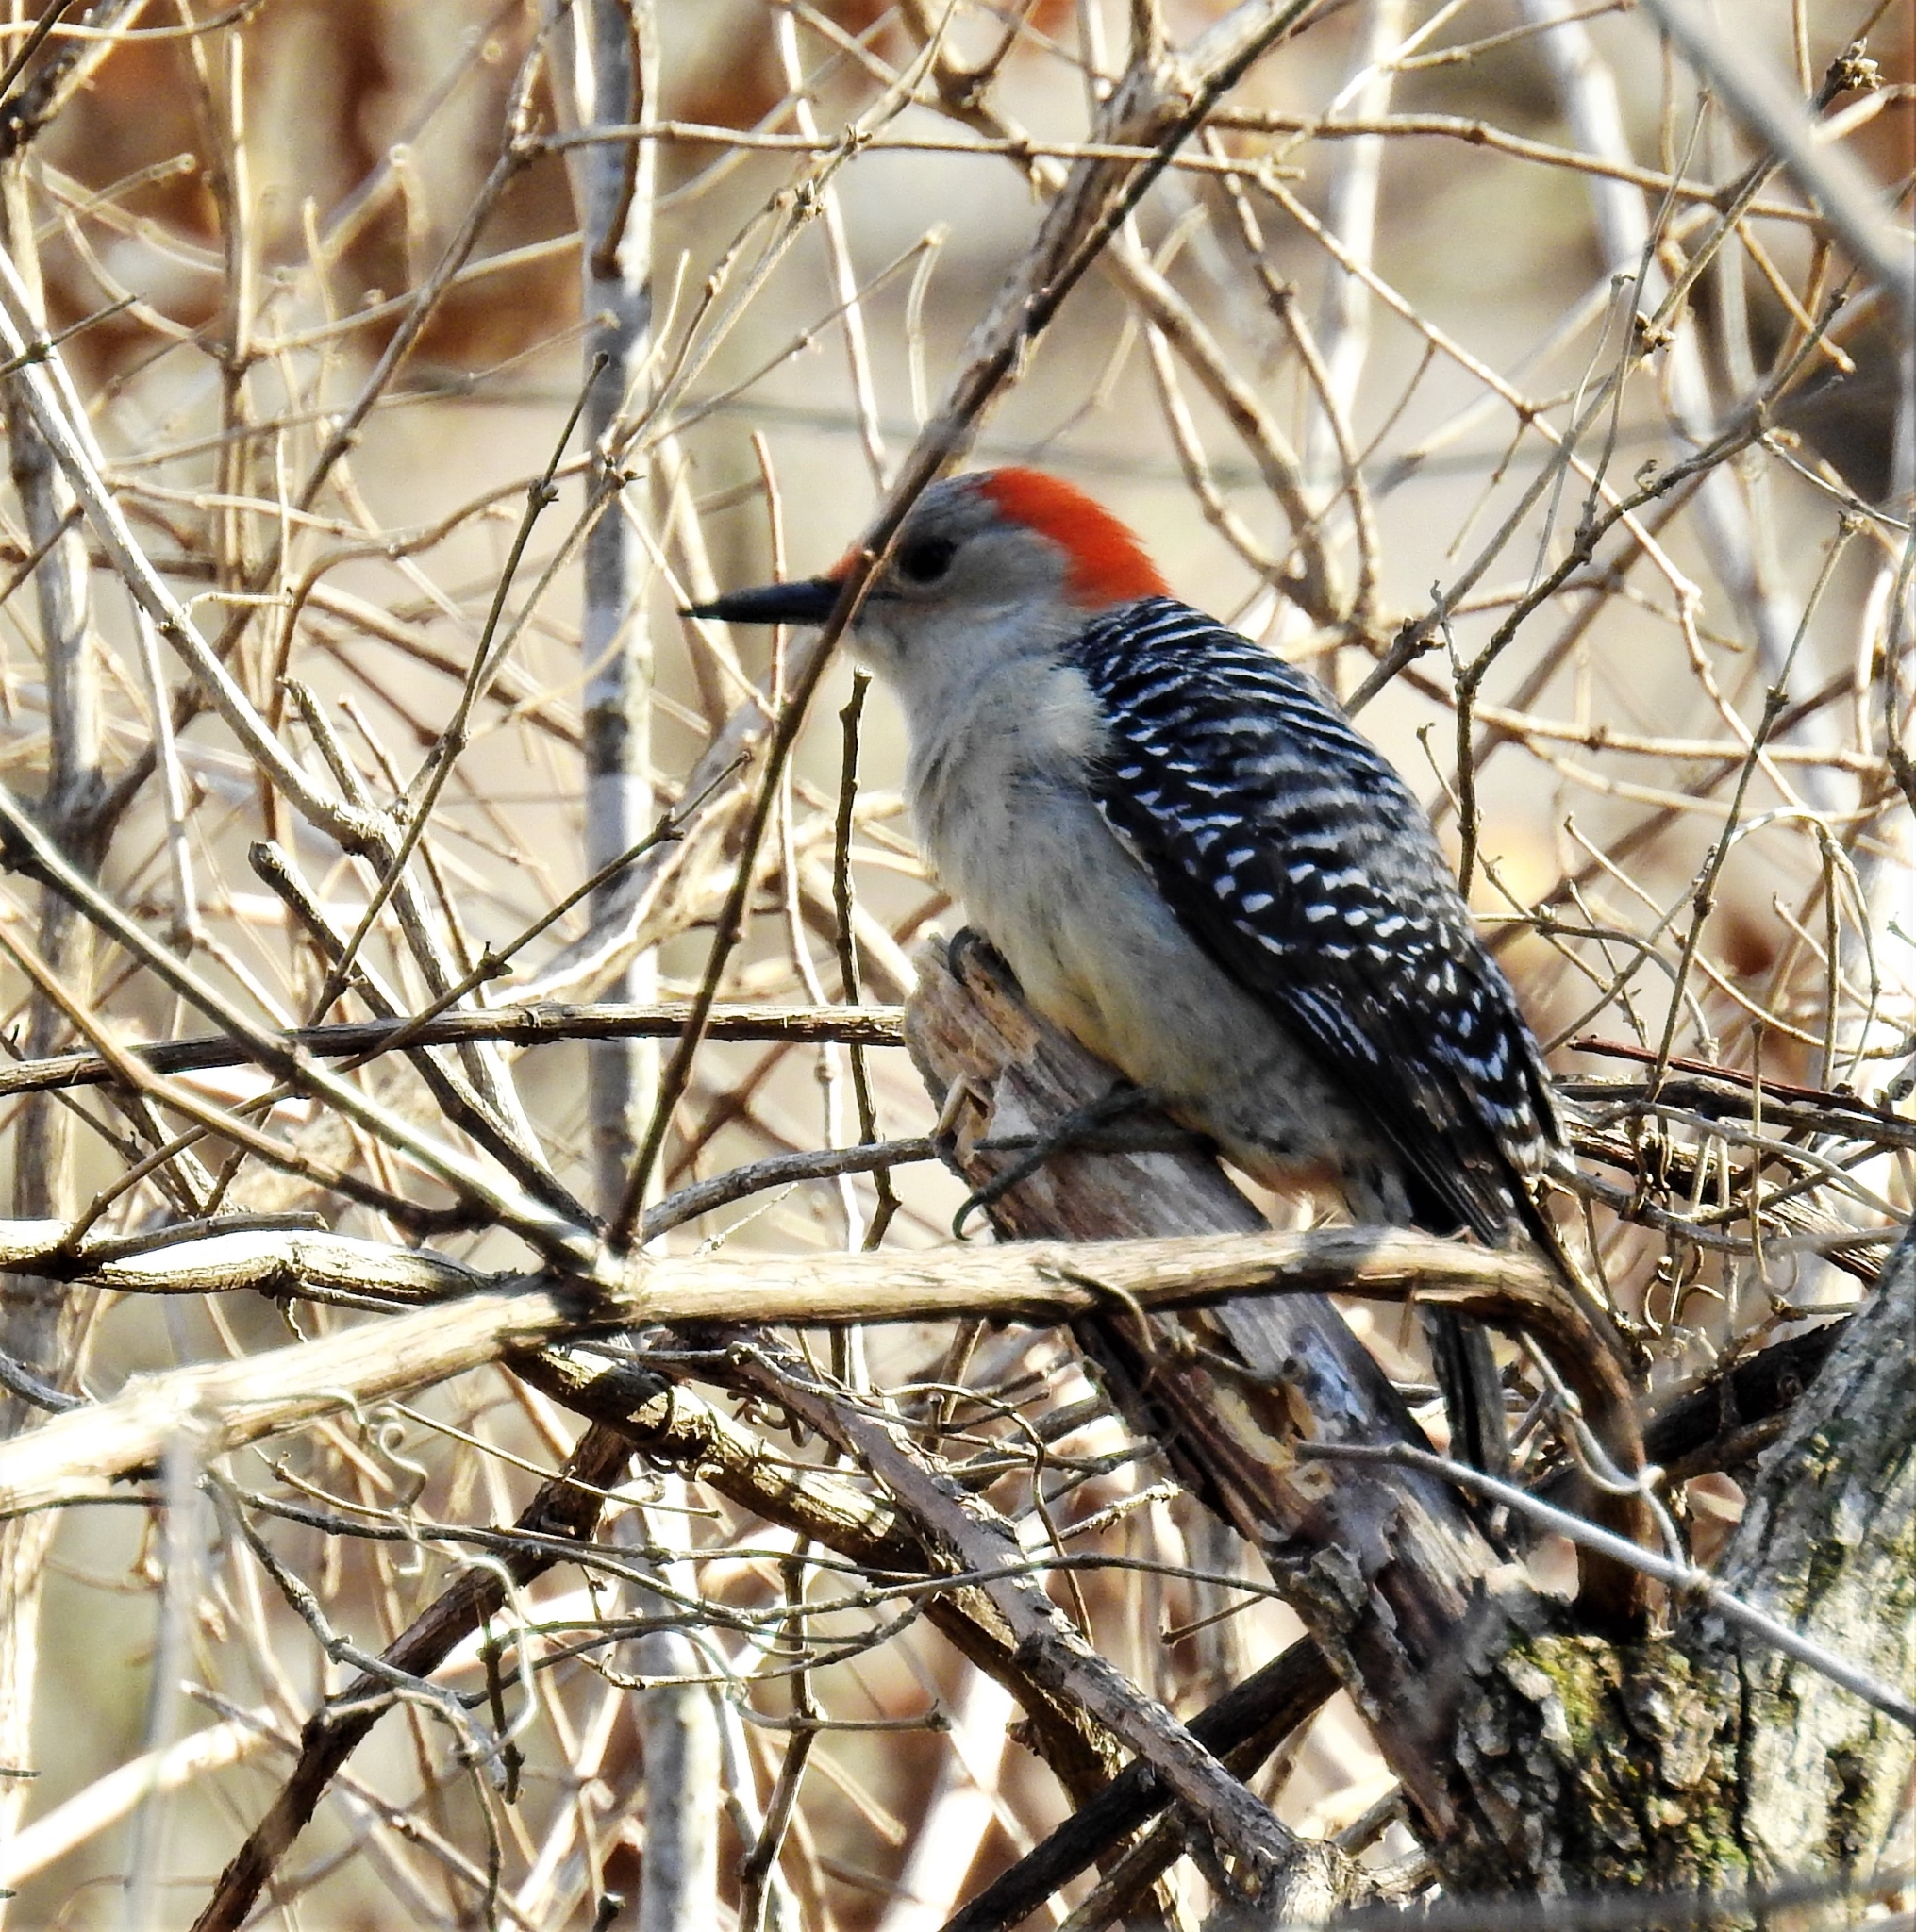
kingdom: Animalia
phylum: Chordata
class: Aves
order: Piciformes
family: Picidae
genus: Melanerpes
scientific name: Melanerpes carolinus
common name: Red-bellied woodpecker
